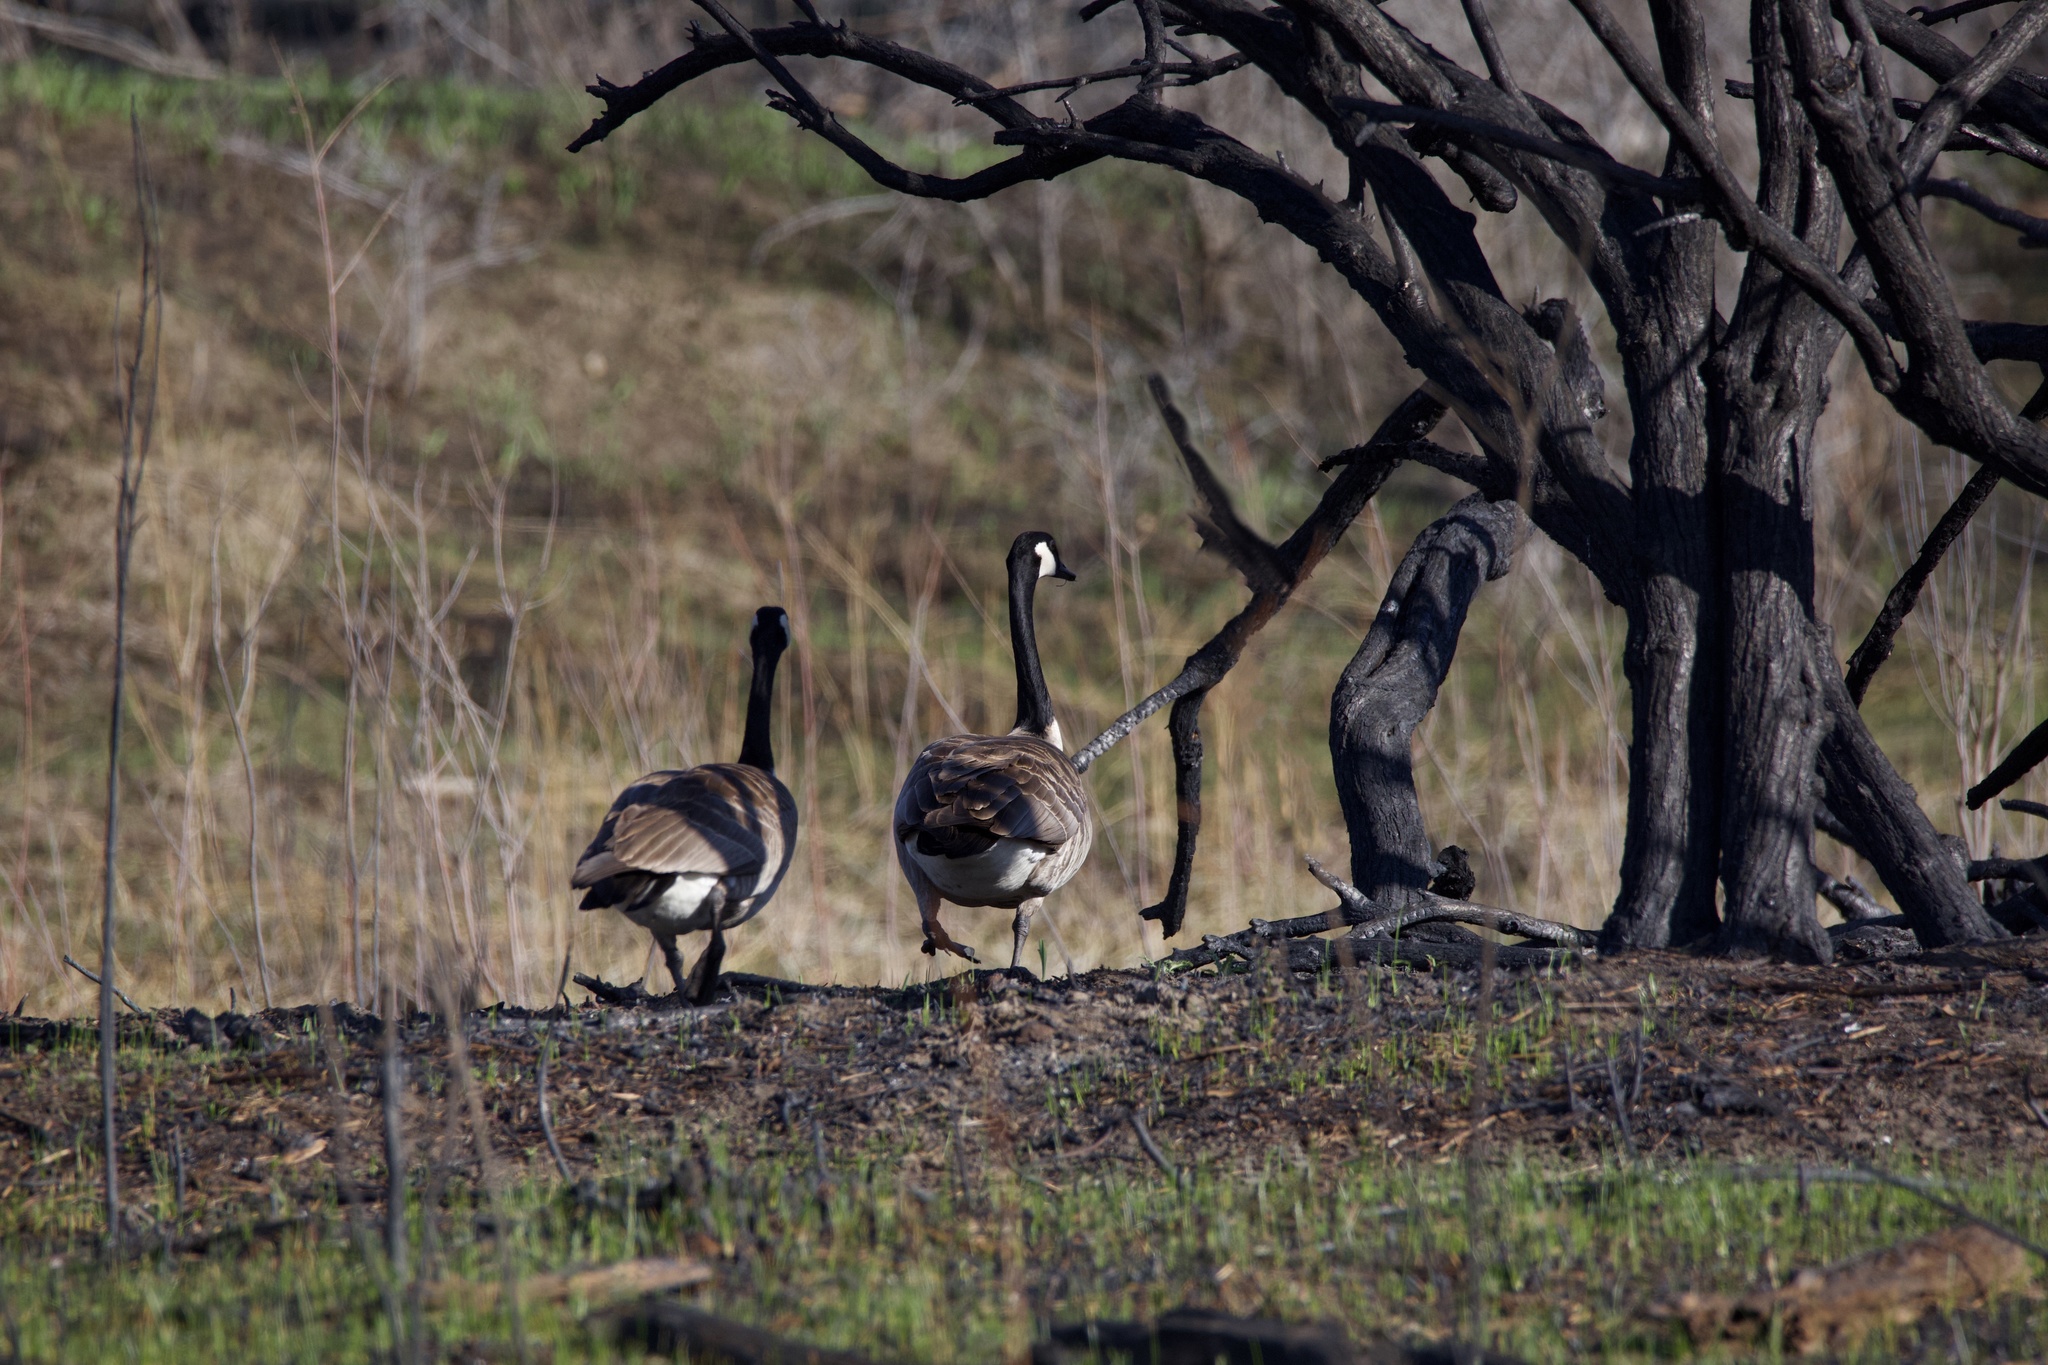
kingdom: Animalia
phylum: Chordata
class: Aves
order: Anseriformes
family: Anatidae
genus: Branta
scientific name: Branta canadensis
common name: Canada goose
